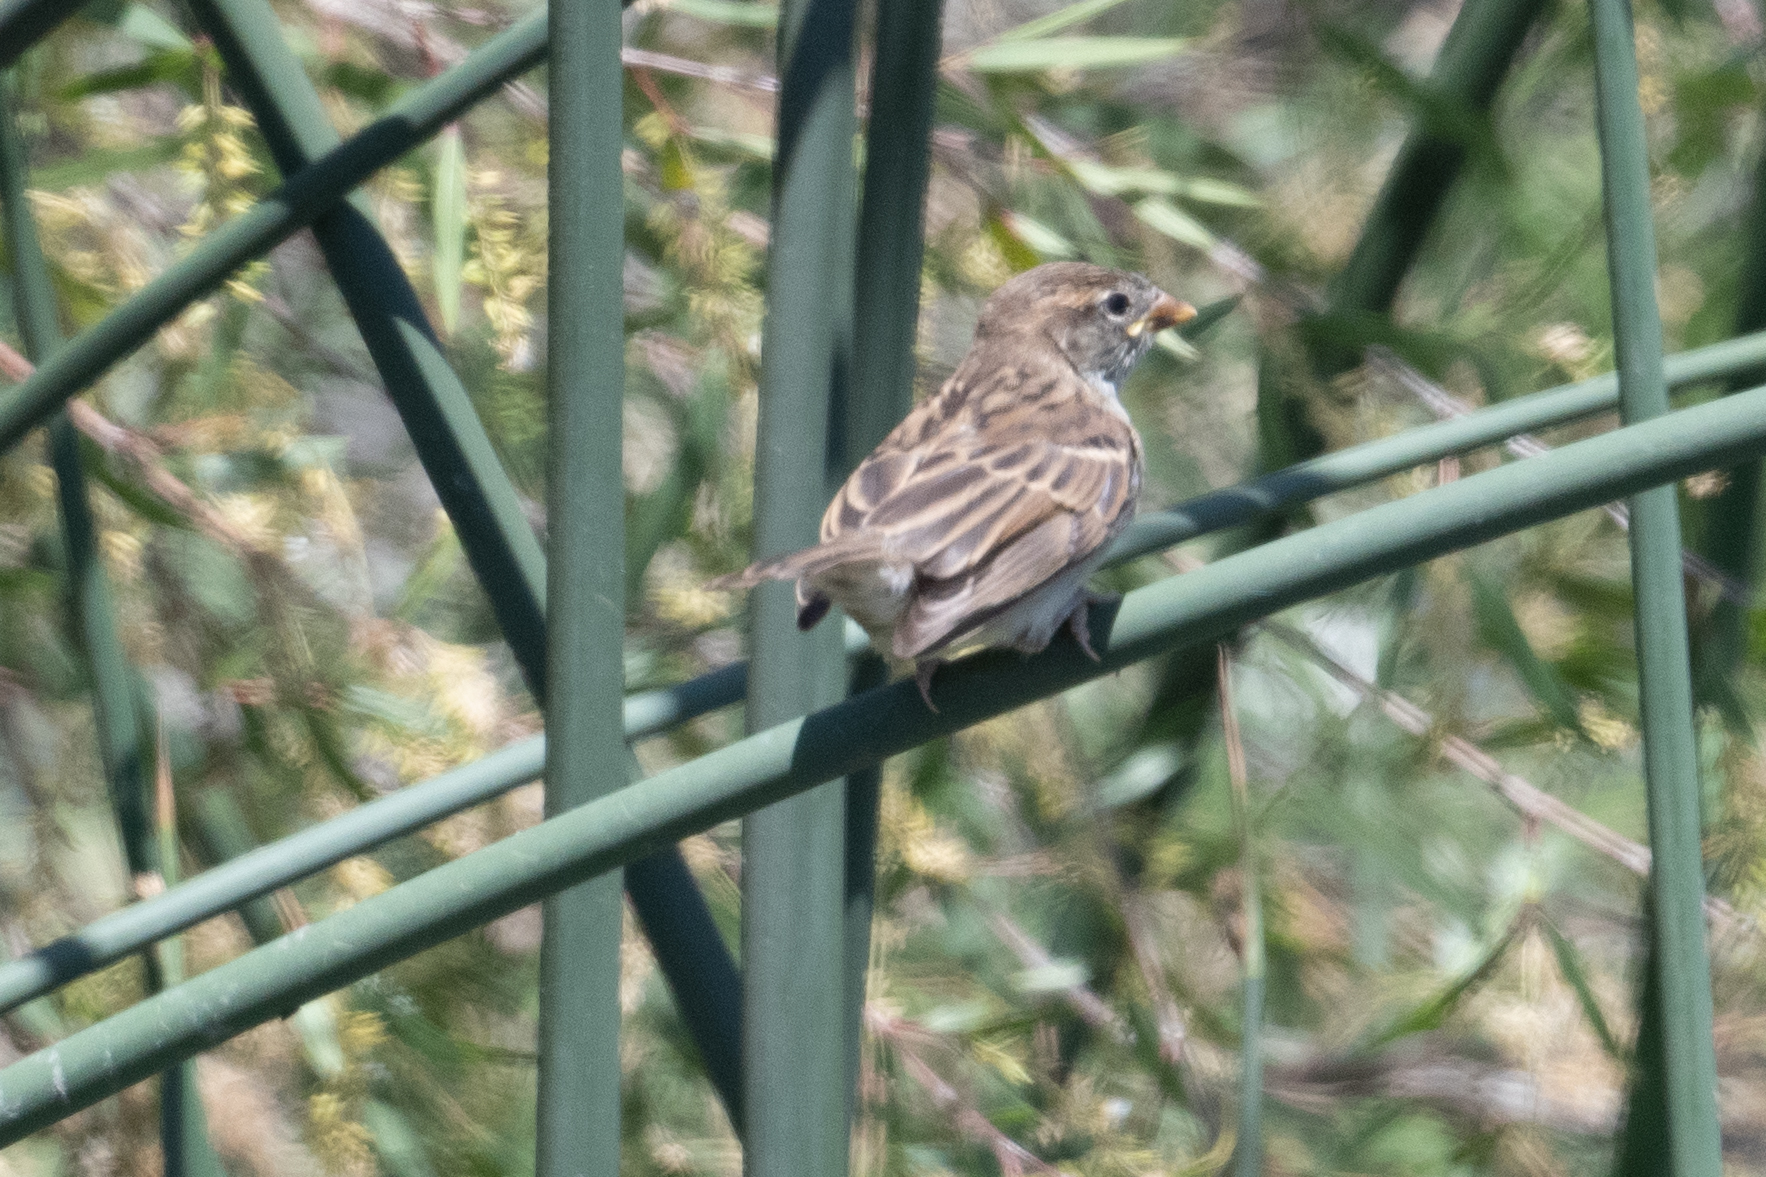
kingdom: Animalia
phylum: Chordata
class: Aves
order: Passeriformes
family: Passeridae
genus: Passer
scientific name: Passer domesticus
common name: House sparrow
